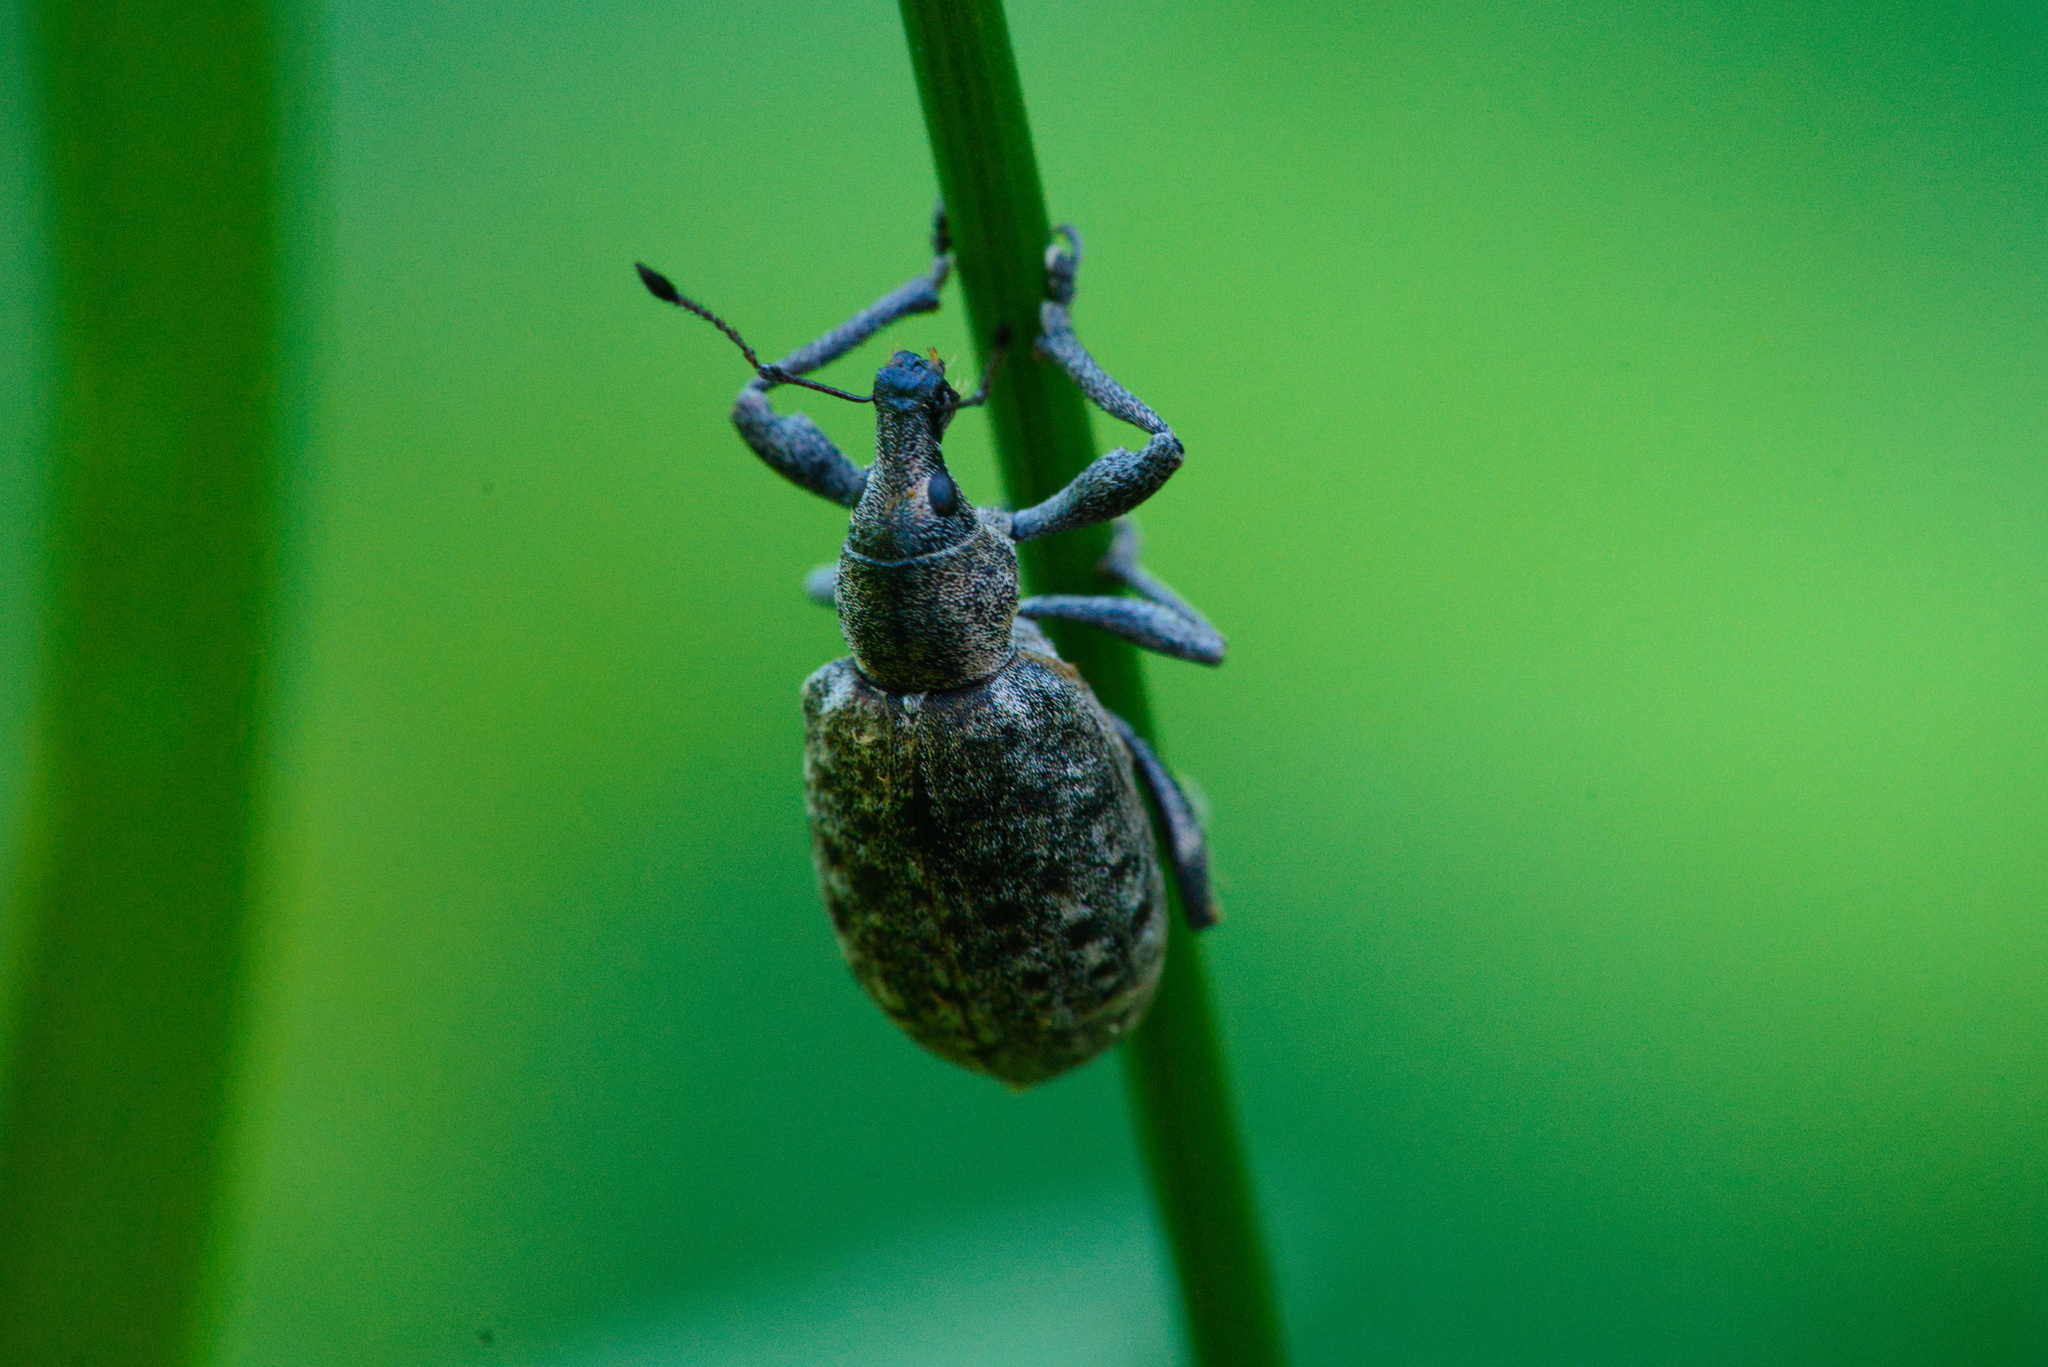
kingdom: Animalia
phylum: Arthropoda
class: Insecta
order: Coleoptera
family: Curculionidae
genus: Liophloeus
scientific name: Liophloeus tessulatus
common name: Weevil
